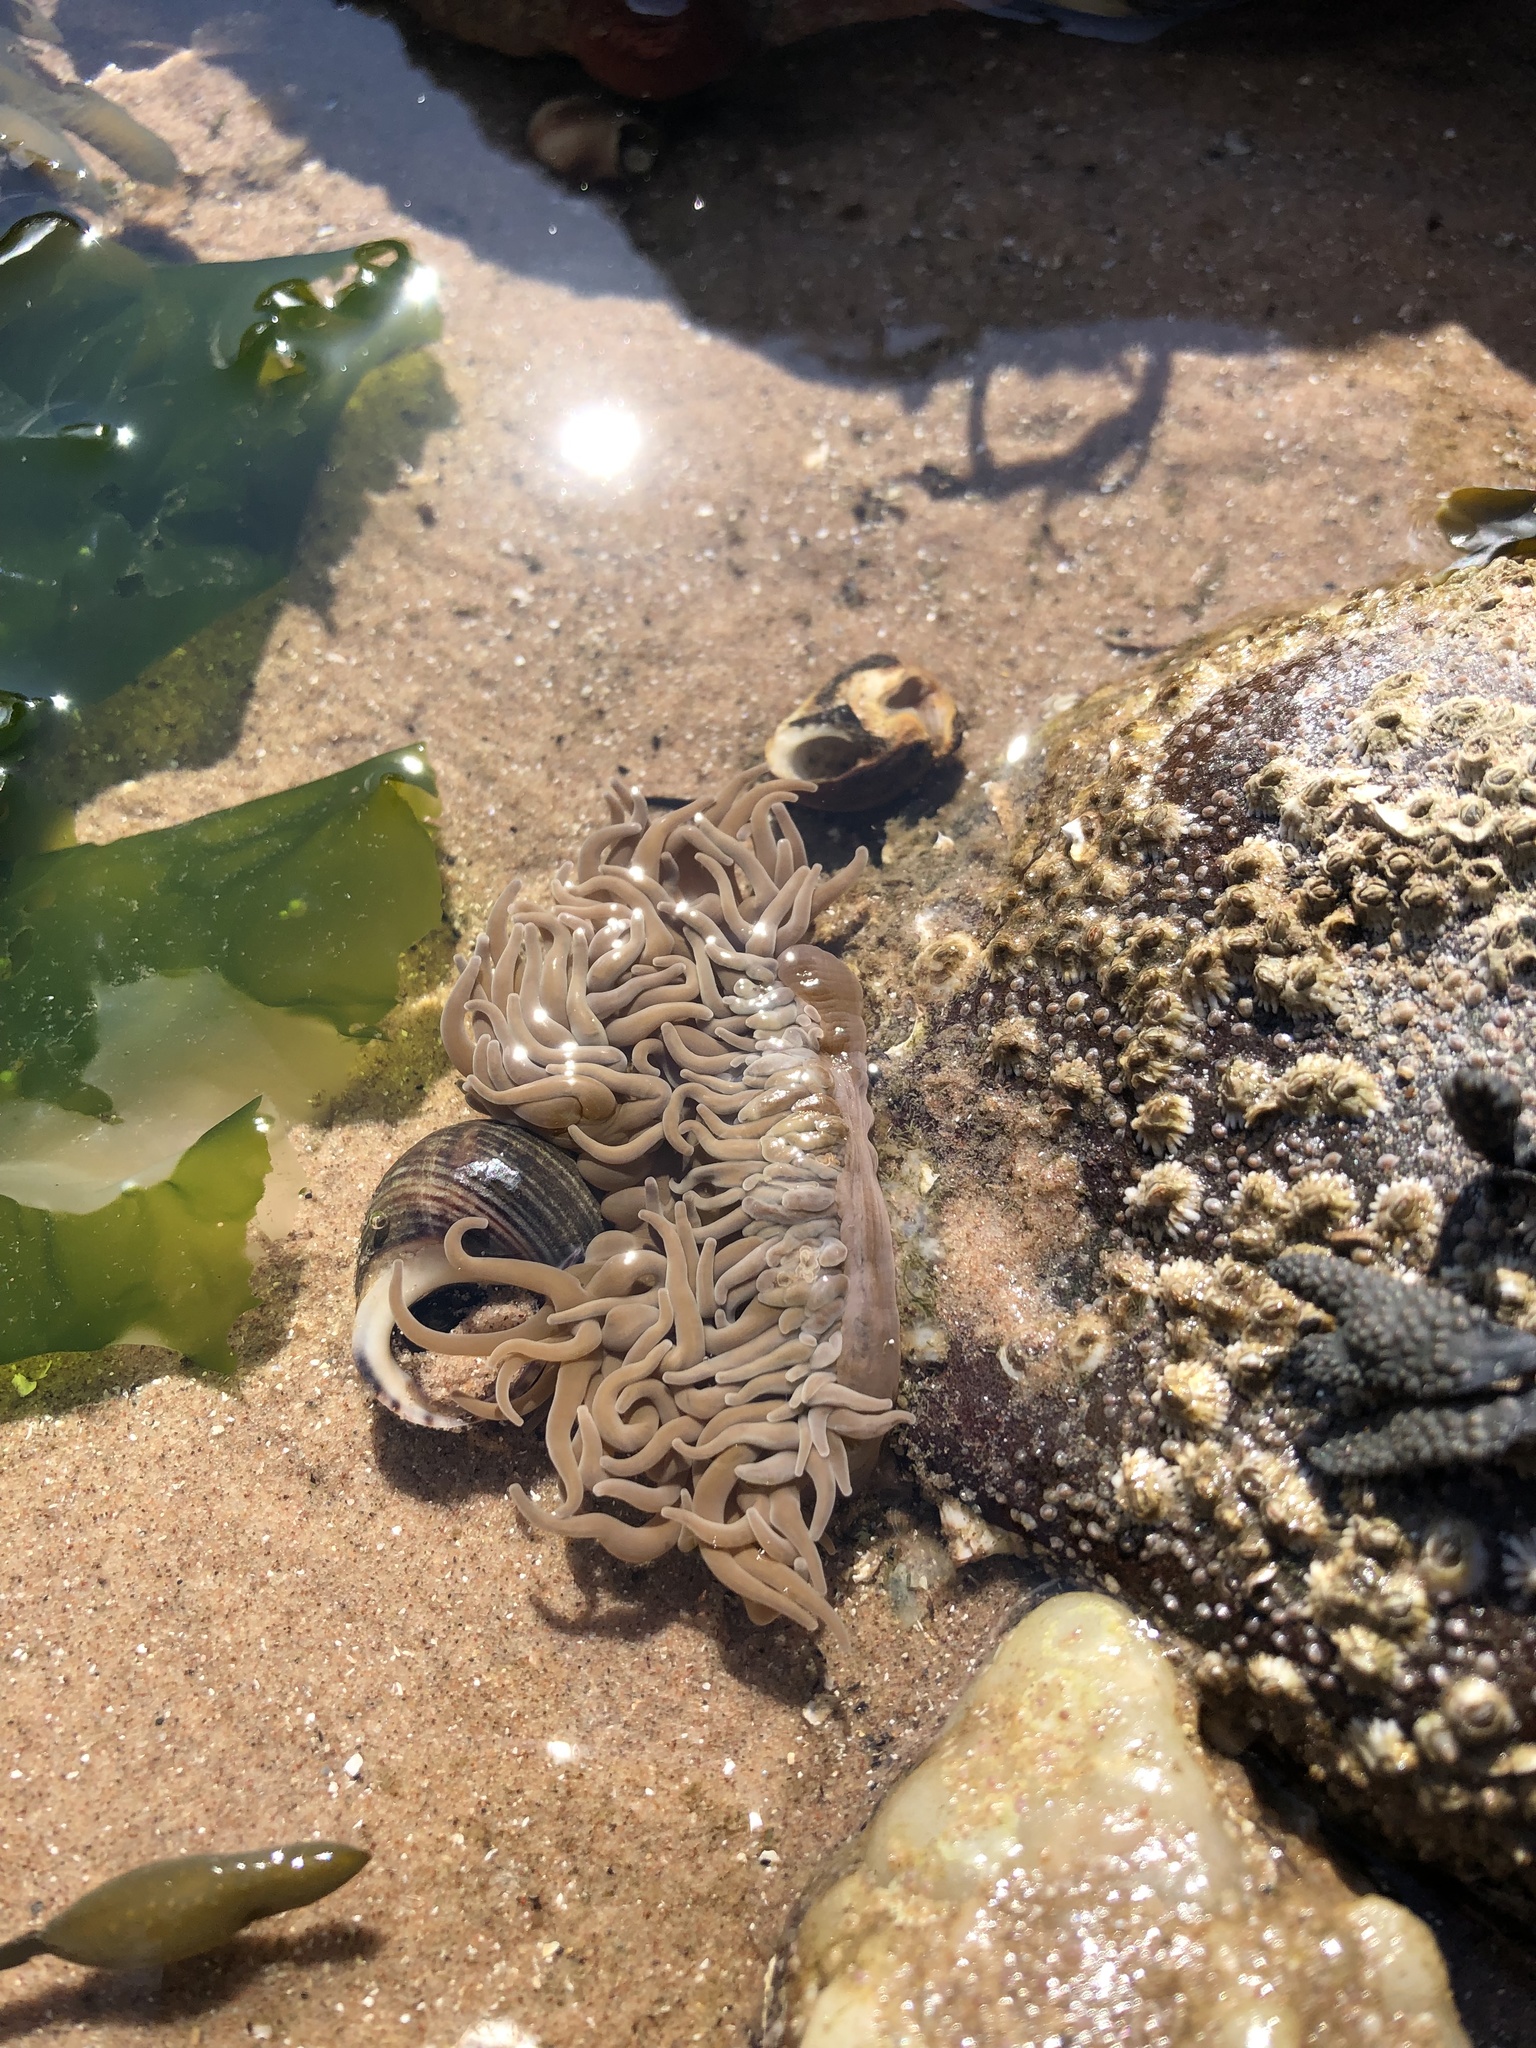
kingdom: Animalia
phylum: Cnidaria
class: Anthozoa
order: Actiniaria
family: Actiniidae
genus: Anemonia
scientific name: Anemonia viridis
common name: Snakelocks anemone
